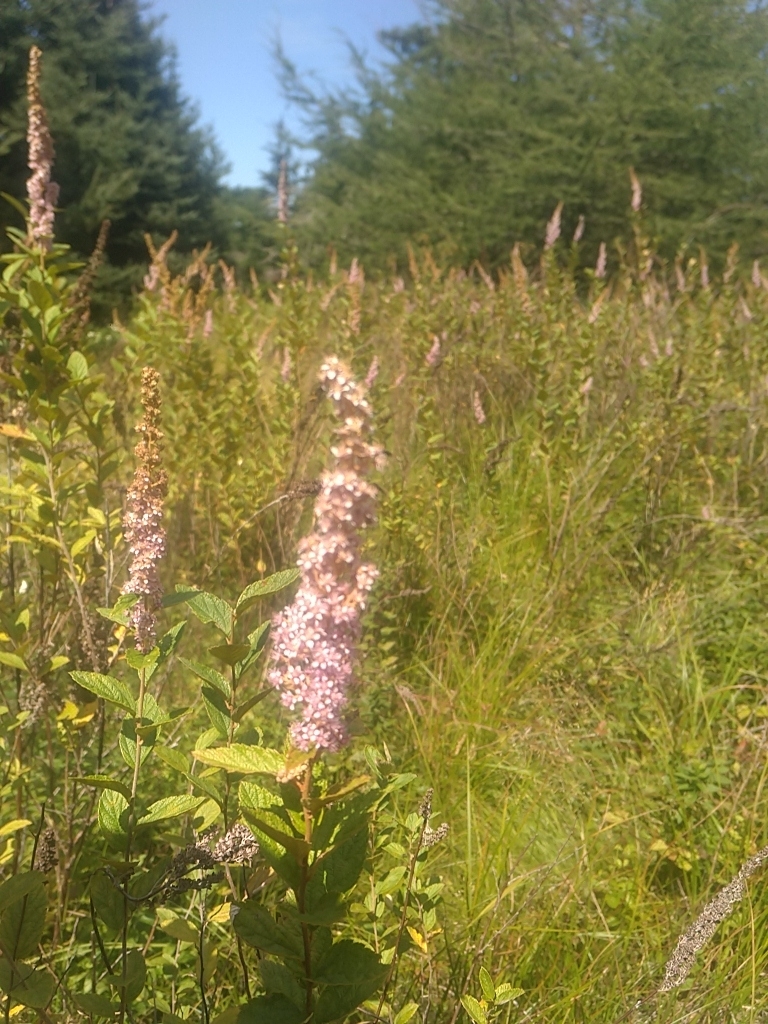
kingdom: Plantae
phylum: Tracheophyta
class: Magnoliopsida
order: Rosales
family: Rosaceae
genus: Spiraea
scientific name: Spiraea tomentosa
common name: Hardhack
